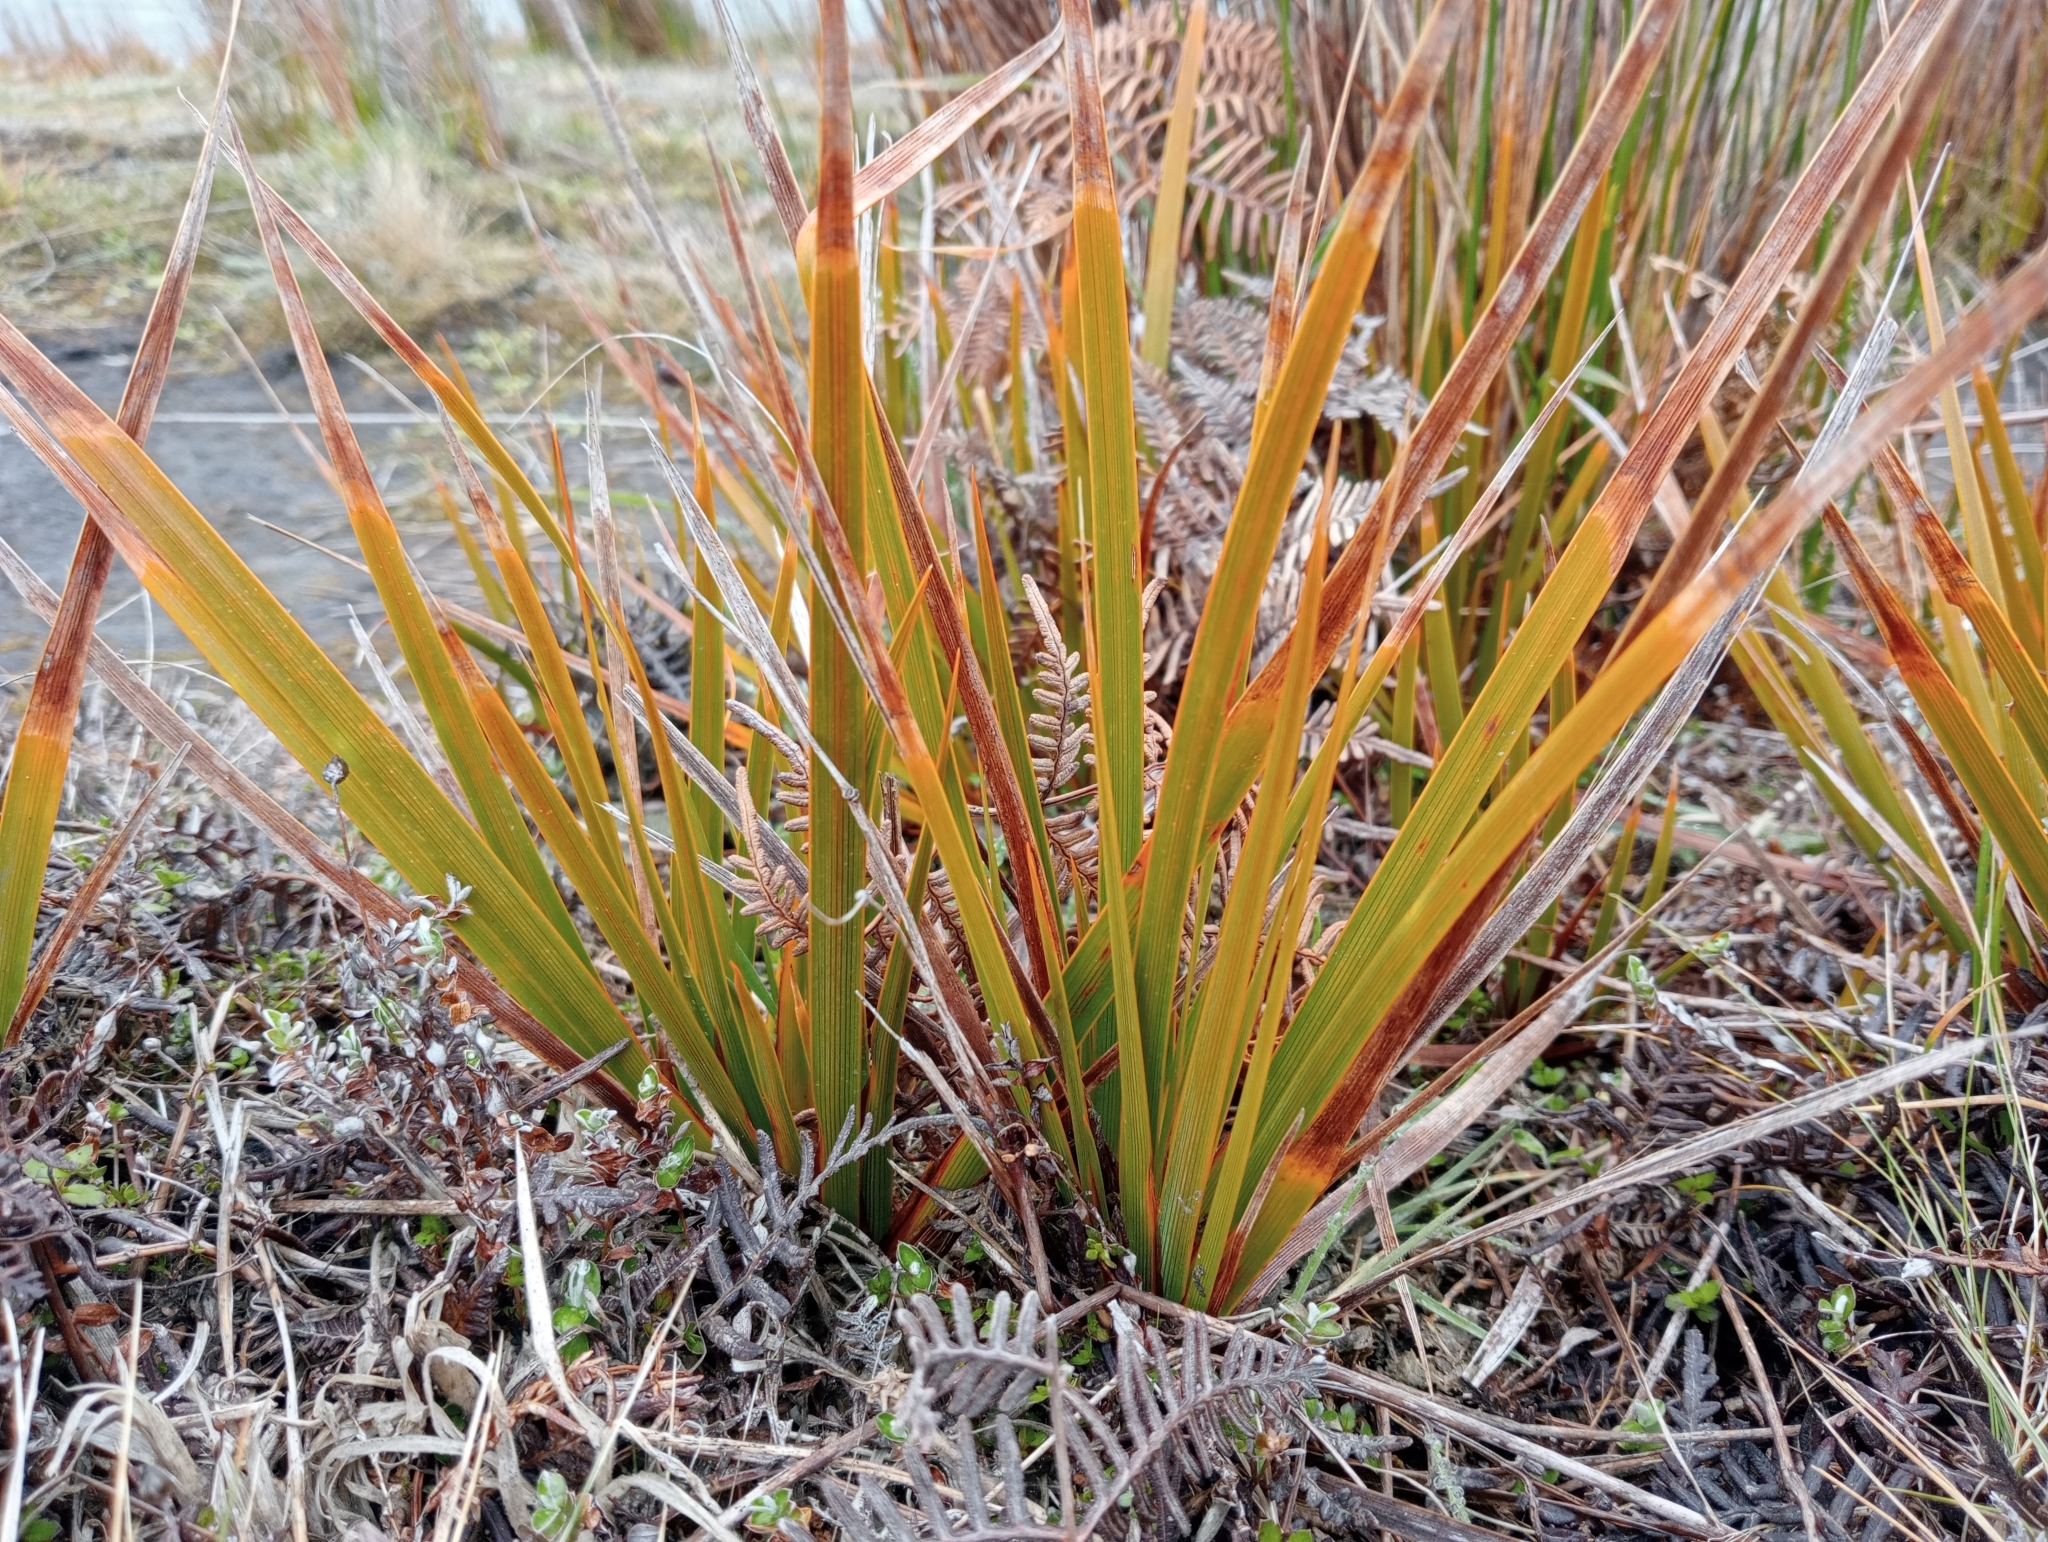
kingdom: Plantae
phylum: Tracheophyta
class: Liliopsida
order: Asparagales
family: Iridaceae
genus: Libertia
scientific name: Libertia peregrinans
